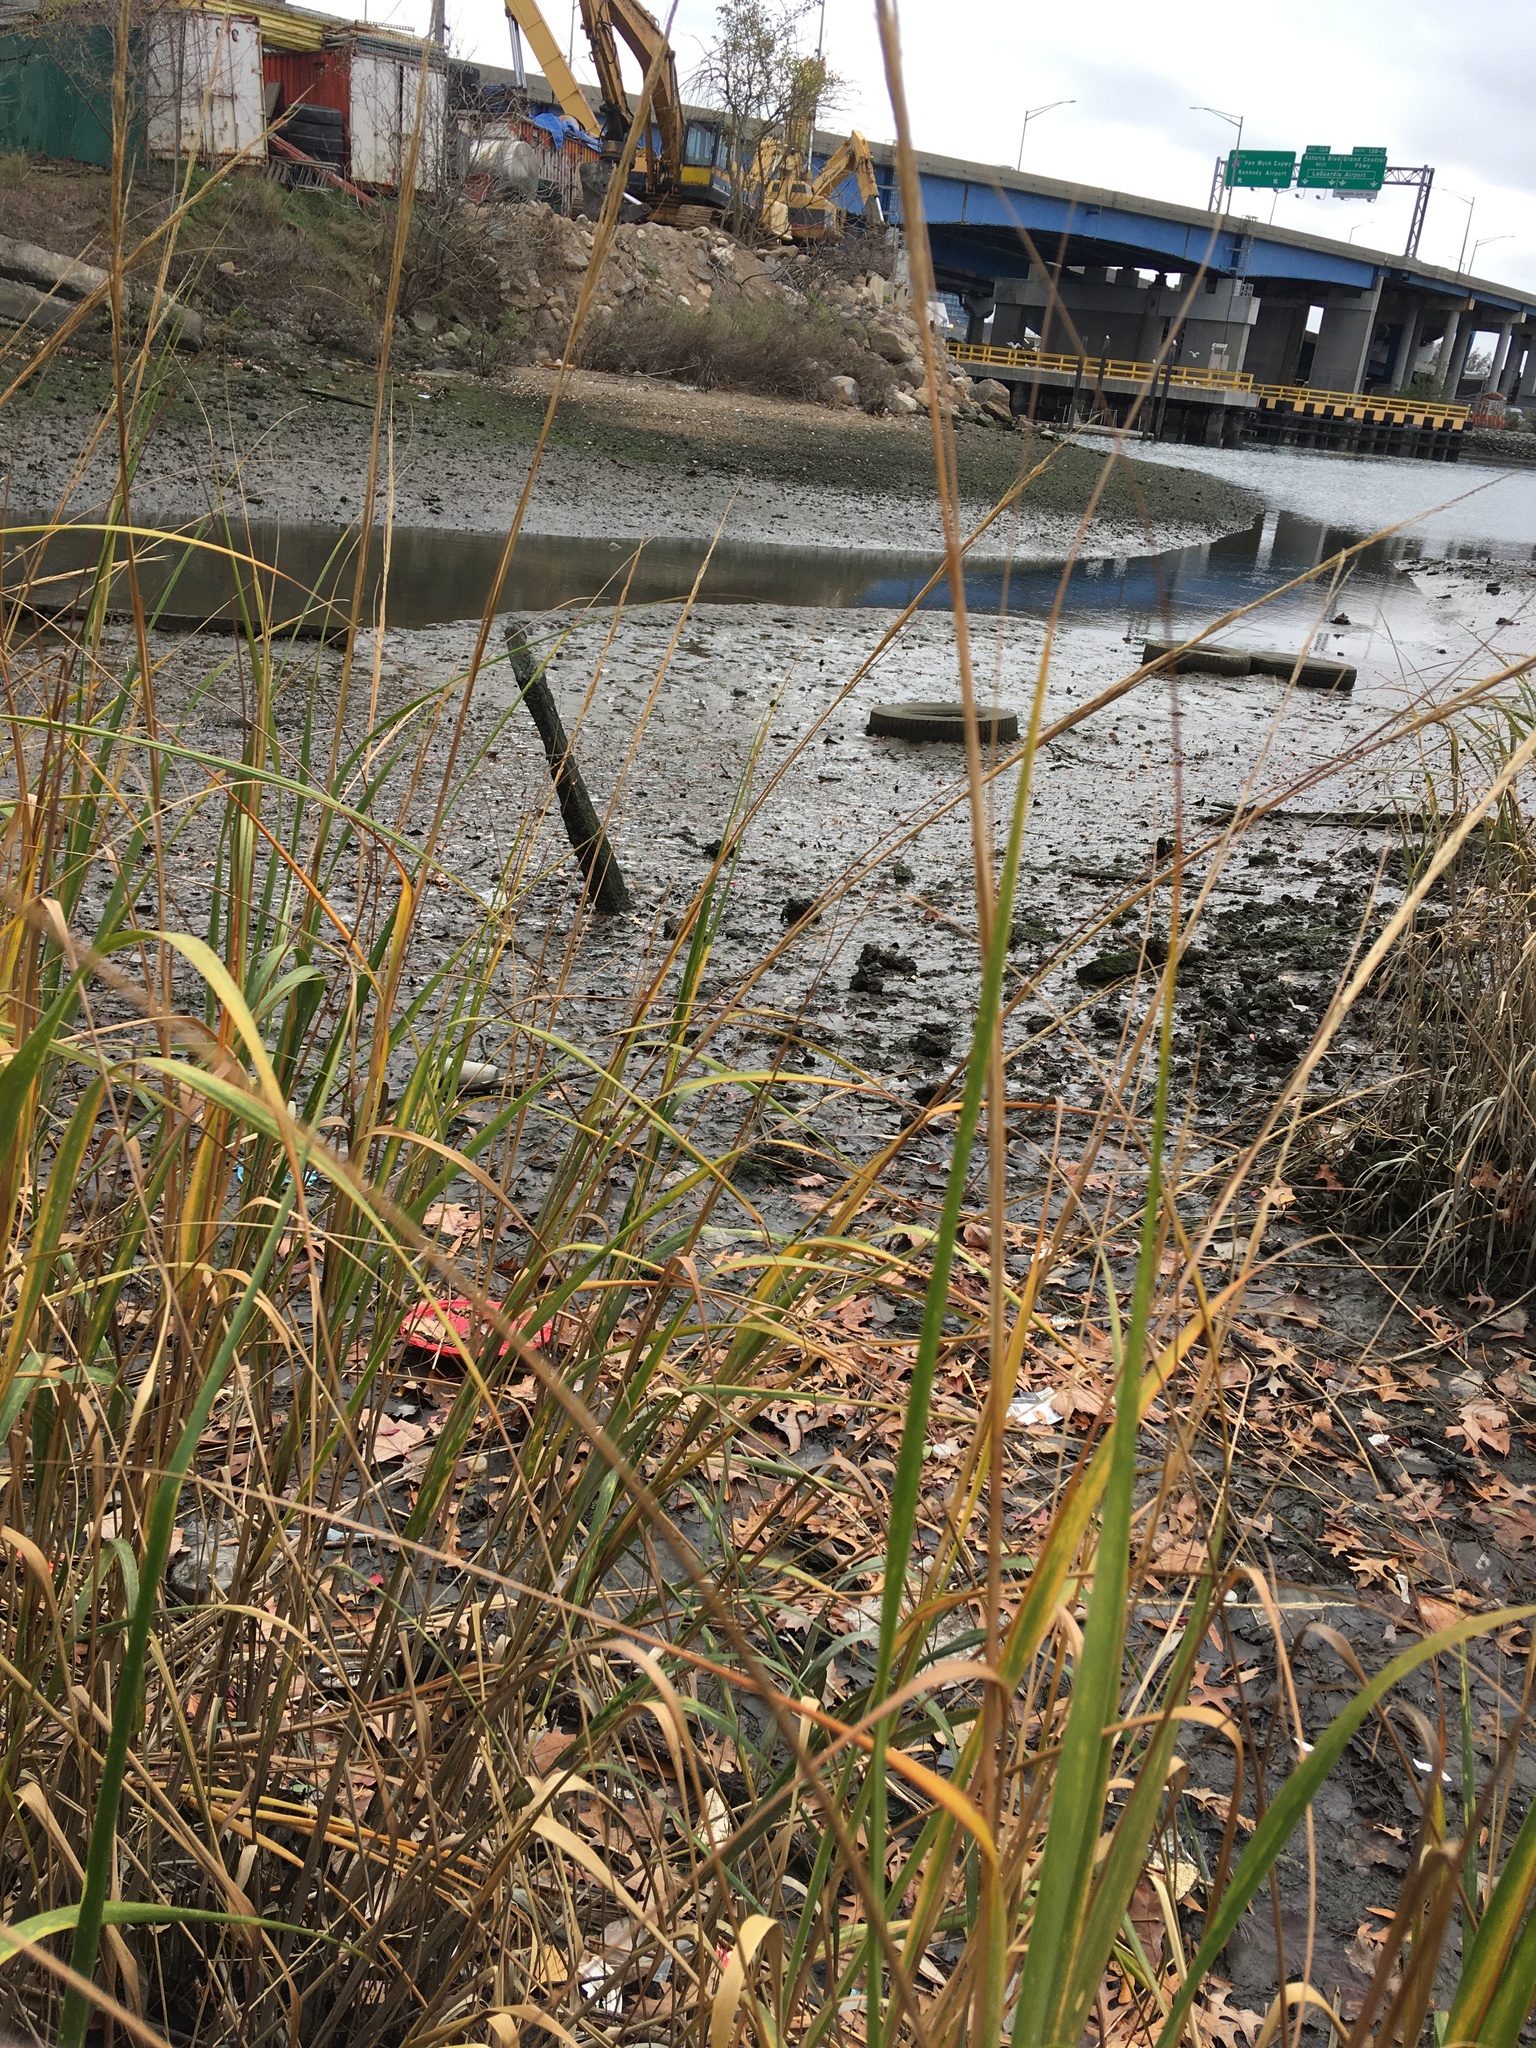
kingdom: Plantae
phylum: Tracheophyta
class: Liliopsida
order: Poales
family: Poaceae
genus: Sporobolus
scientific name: Sporobolus alterniflorus
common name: Atlantic cordgrass
